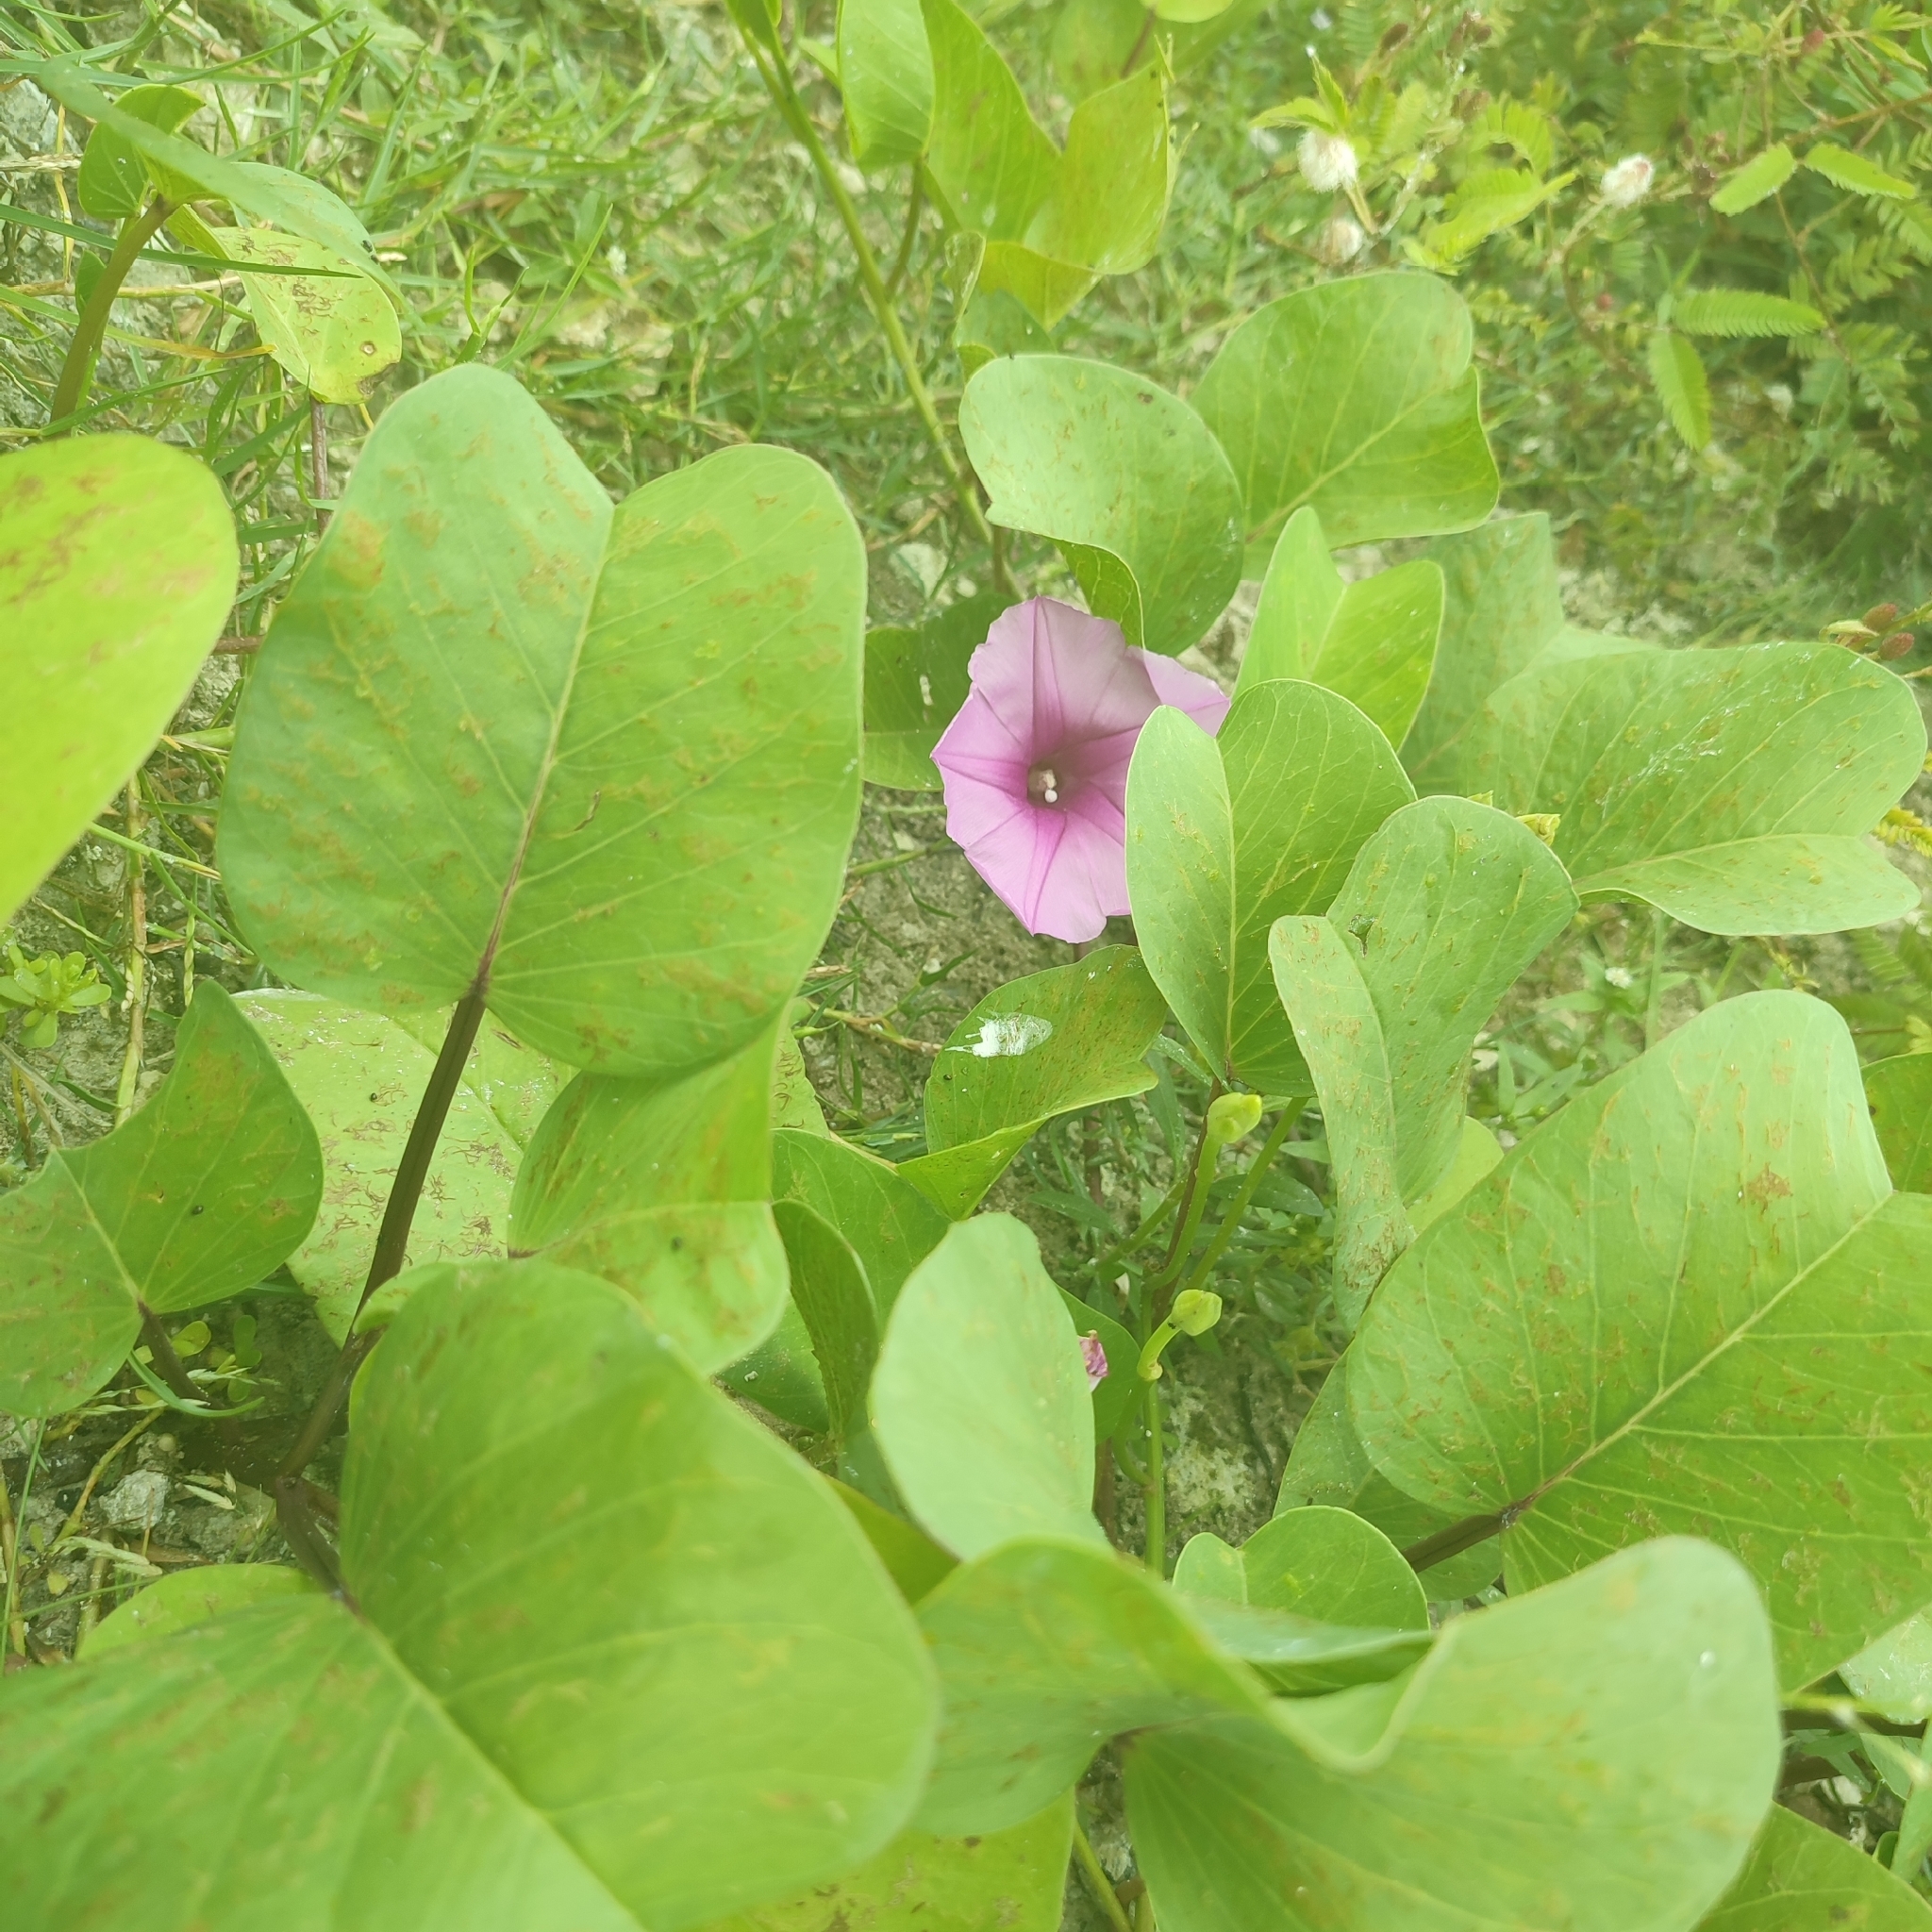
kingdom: Plantae
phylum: Tracheophyta
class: Magnoliopsida
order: Solanales
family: Convolvulaceae
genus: Ipomoea
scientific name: Ipomoea pes-caprae
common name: Beach morning glory
